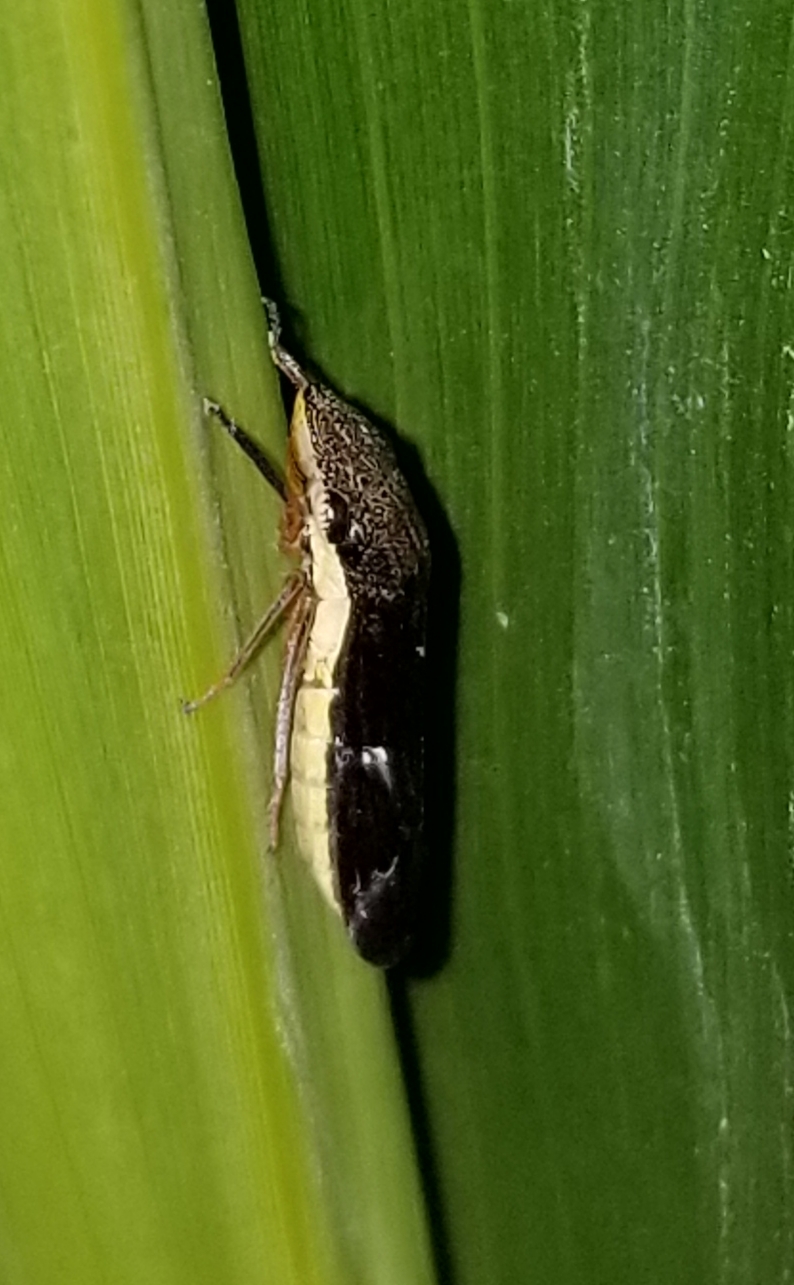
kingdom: Animalia
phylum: Arthropoda
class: Insecta
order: Hemiptera
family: Cicadellidae
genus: Homalodisca
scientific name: Homalodisca insolita
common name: Johnson grass sharpshooter
